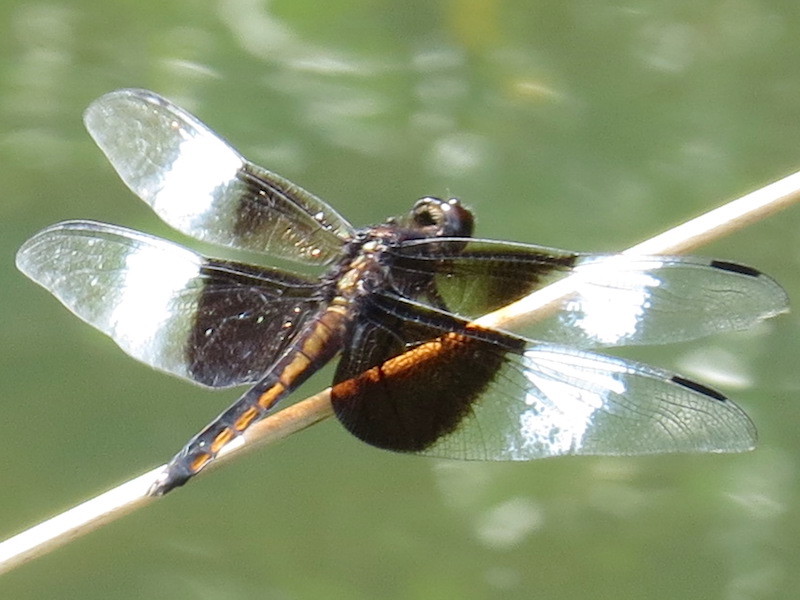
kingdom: Animalia
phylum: Arthropoda
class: Insecta
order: Odonata
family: Libellulidae
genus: Libellula
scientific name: Libellula luctuosa
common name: Widow skimmer
